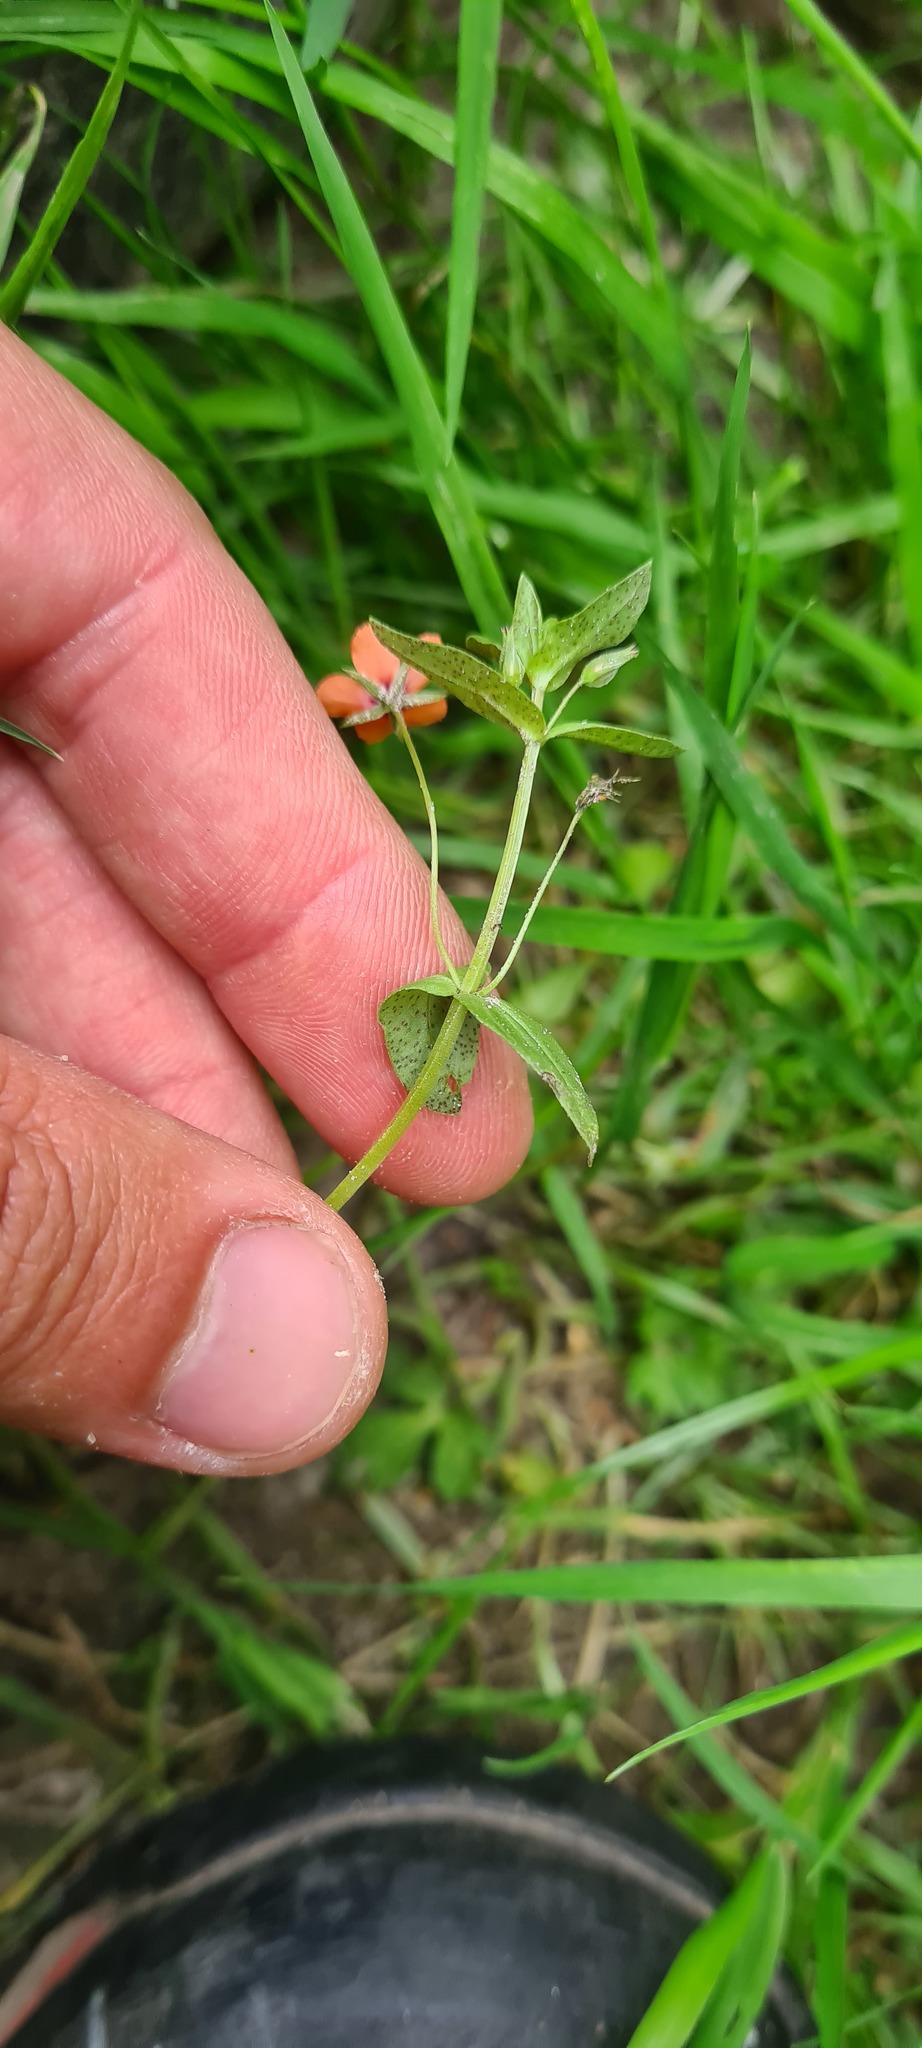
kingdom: Plantae
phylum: Tracheophyta
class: Magnoliopsida
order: Ericales
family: Primulaceae
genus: Lysimachia
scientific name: Lysimachia arvensis
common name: Scarlet pimpernel
